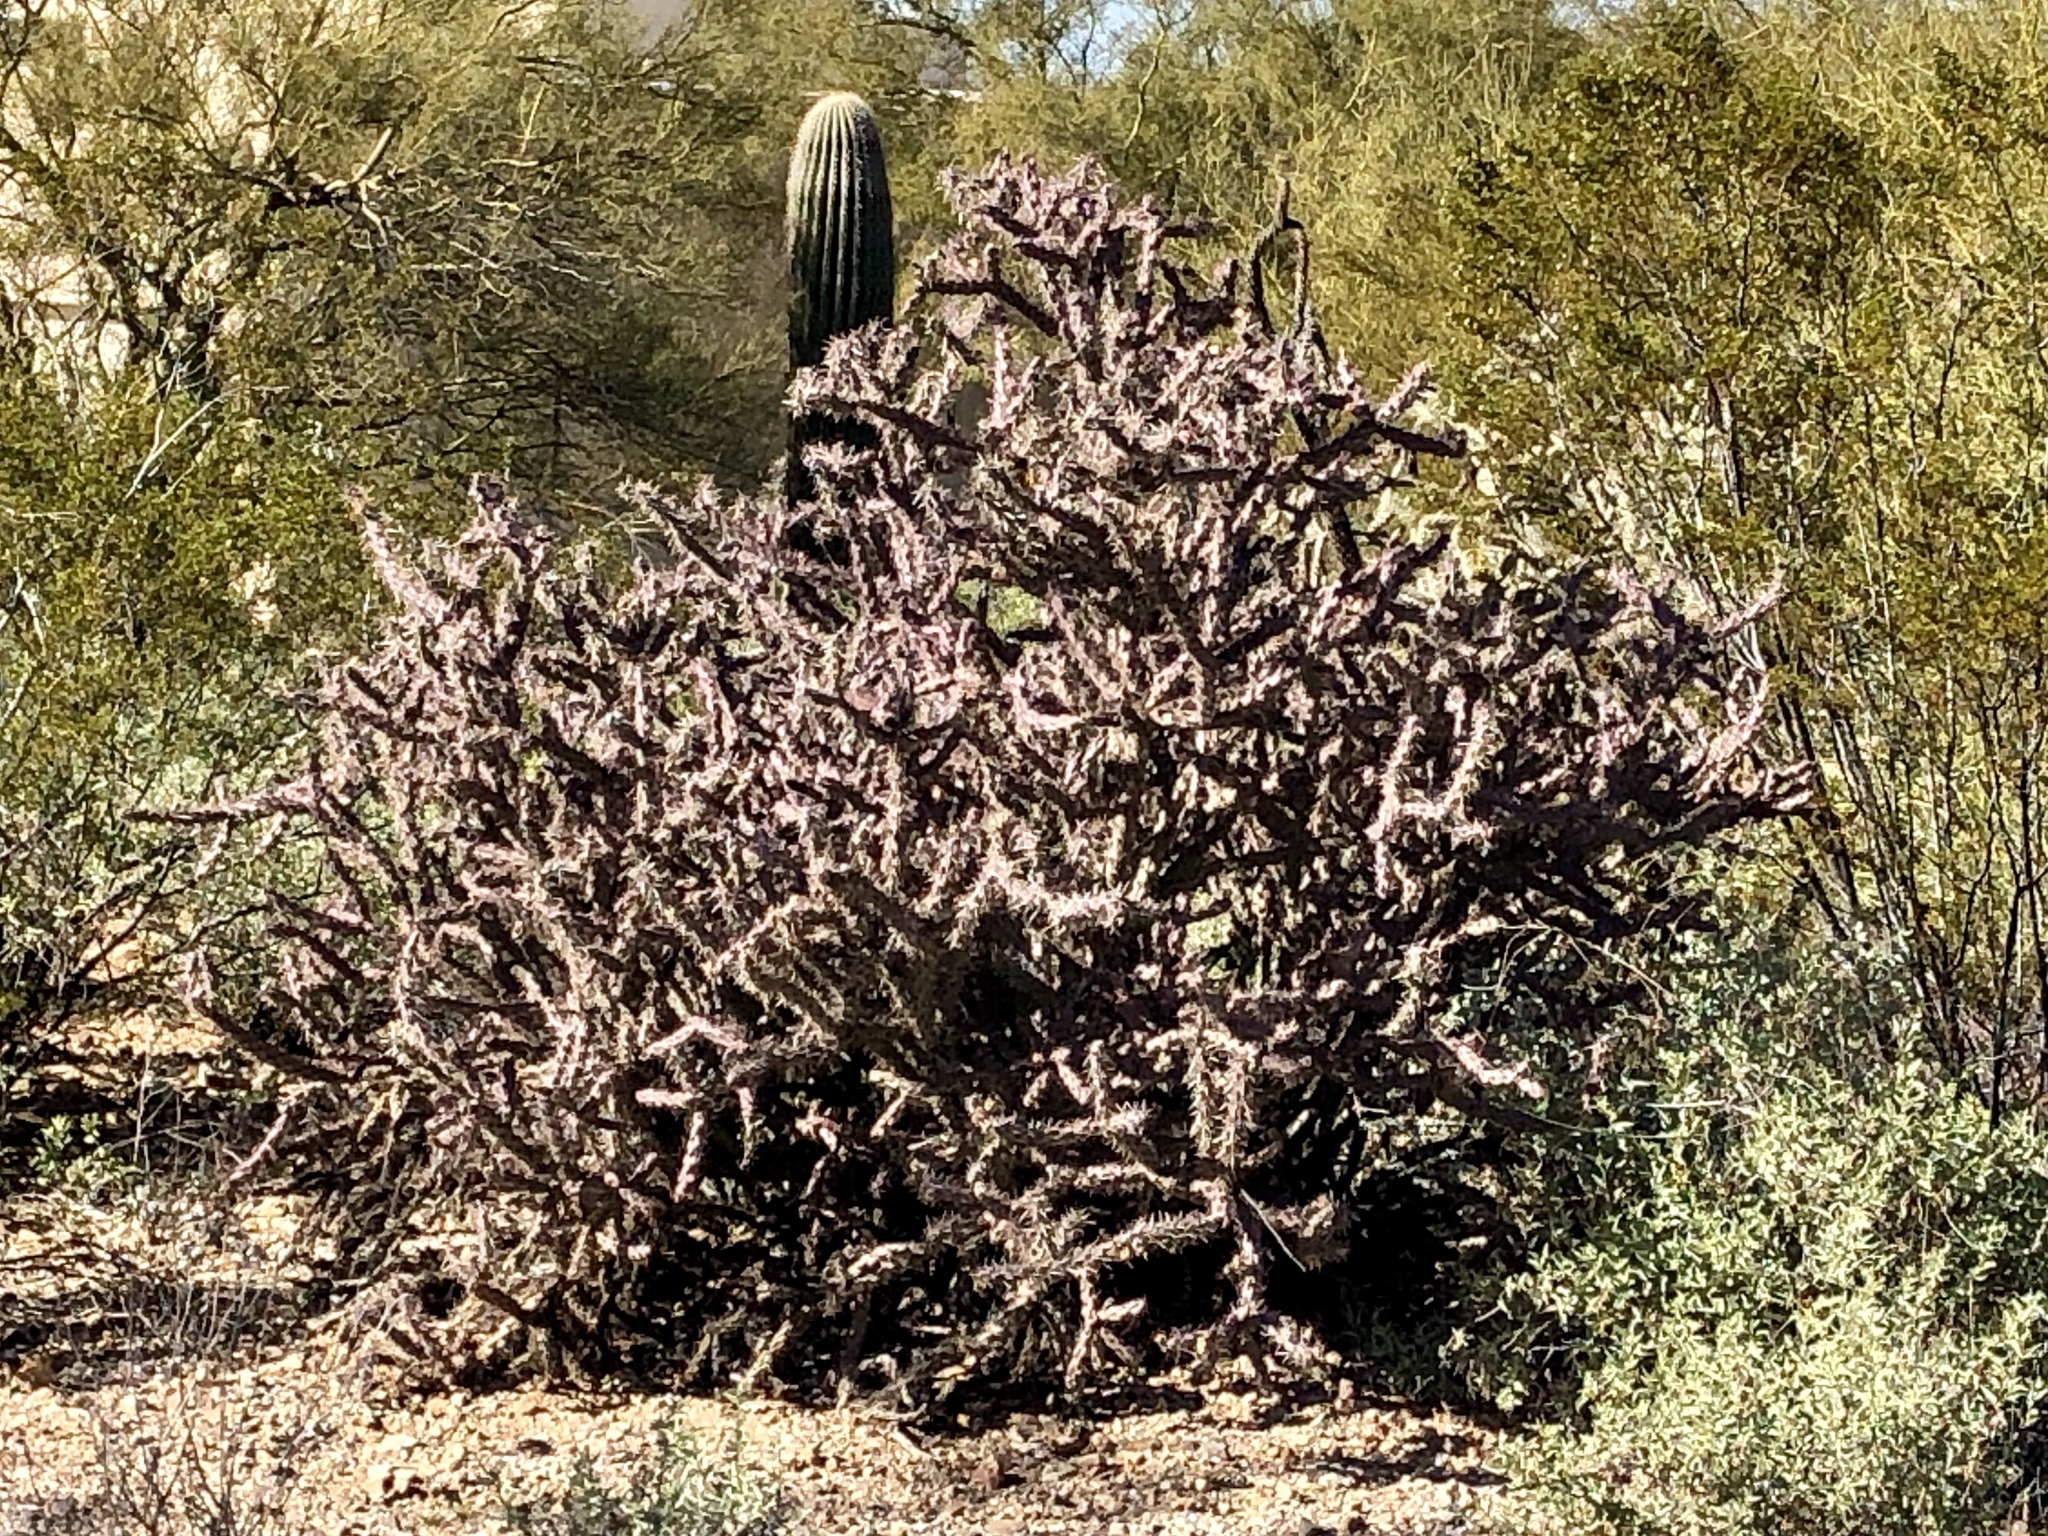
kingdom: Plantae
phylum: Tracheophyta
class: Magnoliopsida
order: Caryophyllales
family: Cactaceae
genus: Cylindropuntia
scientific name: Cylindropuntia thurberi
